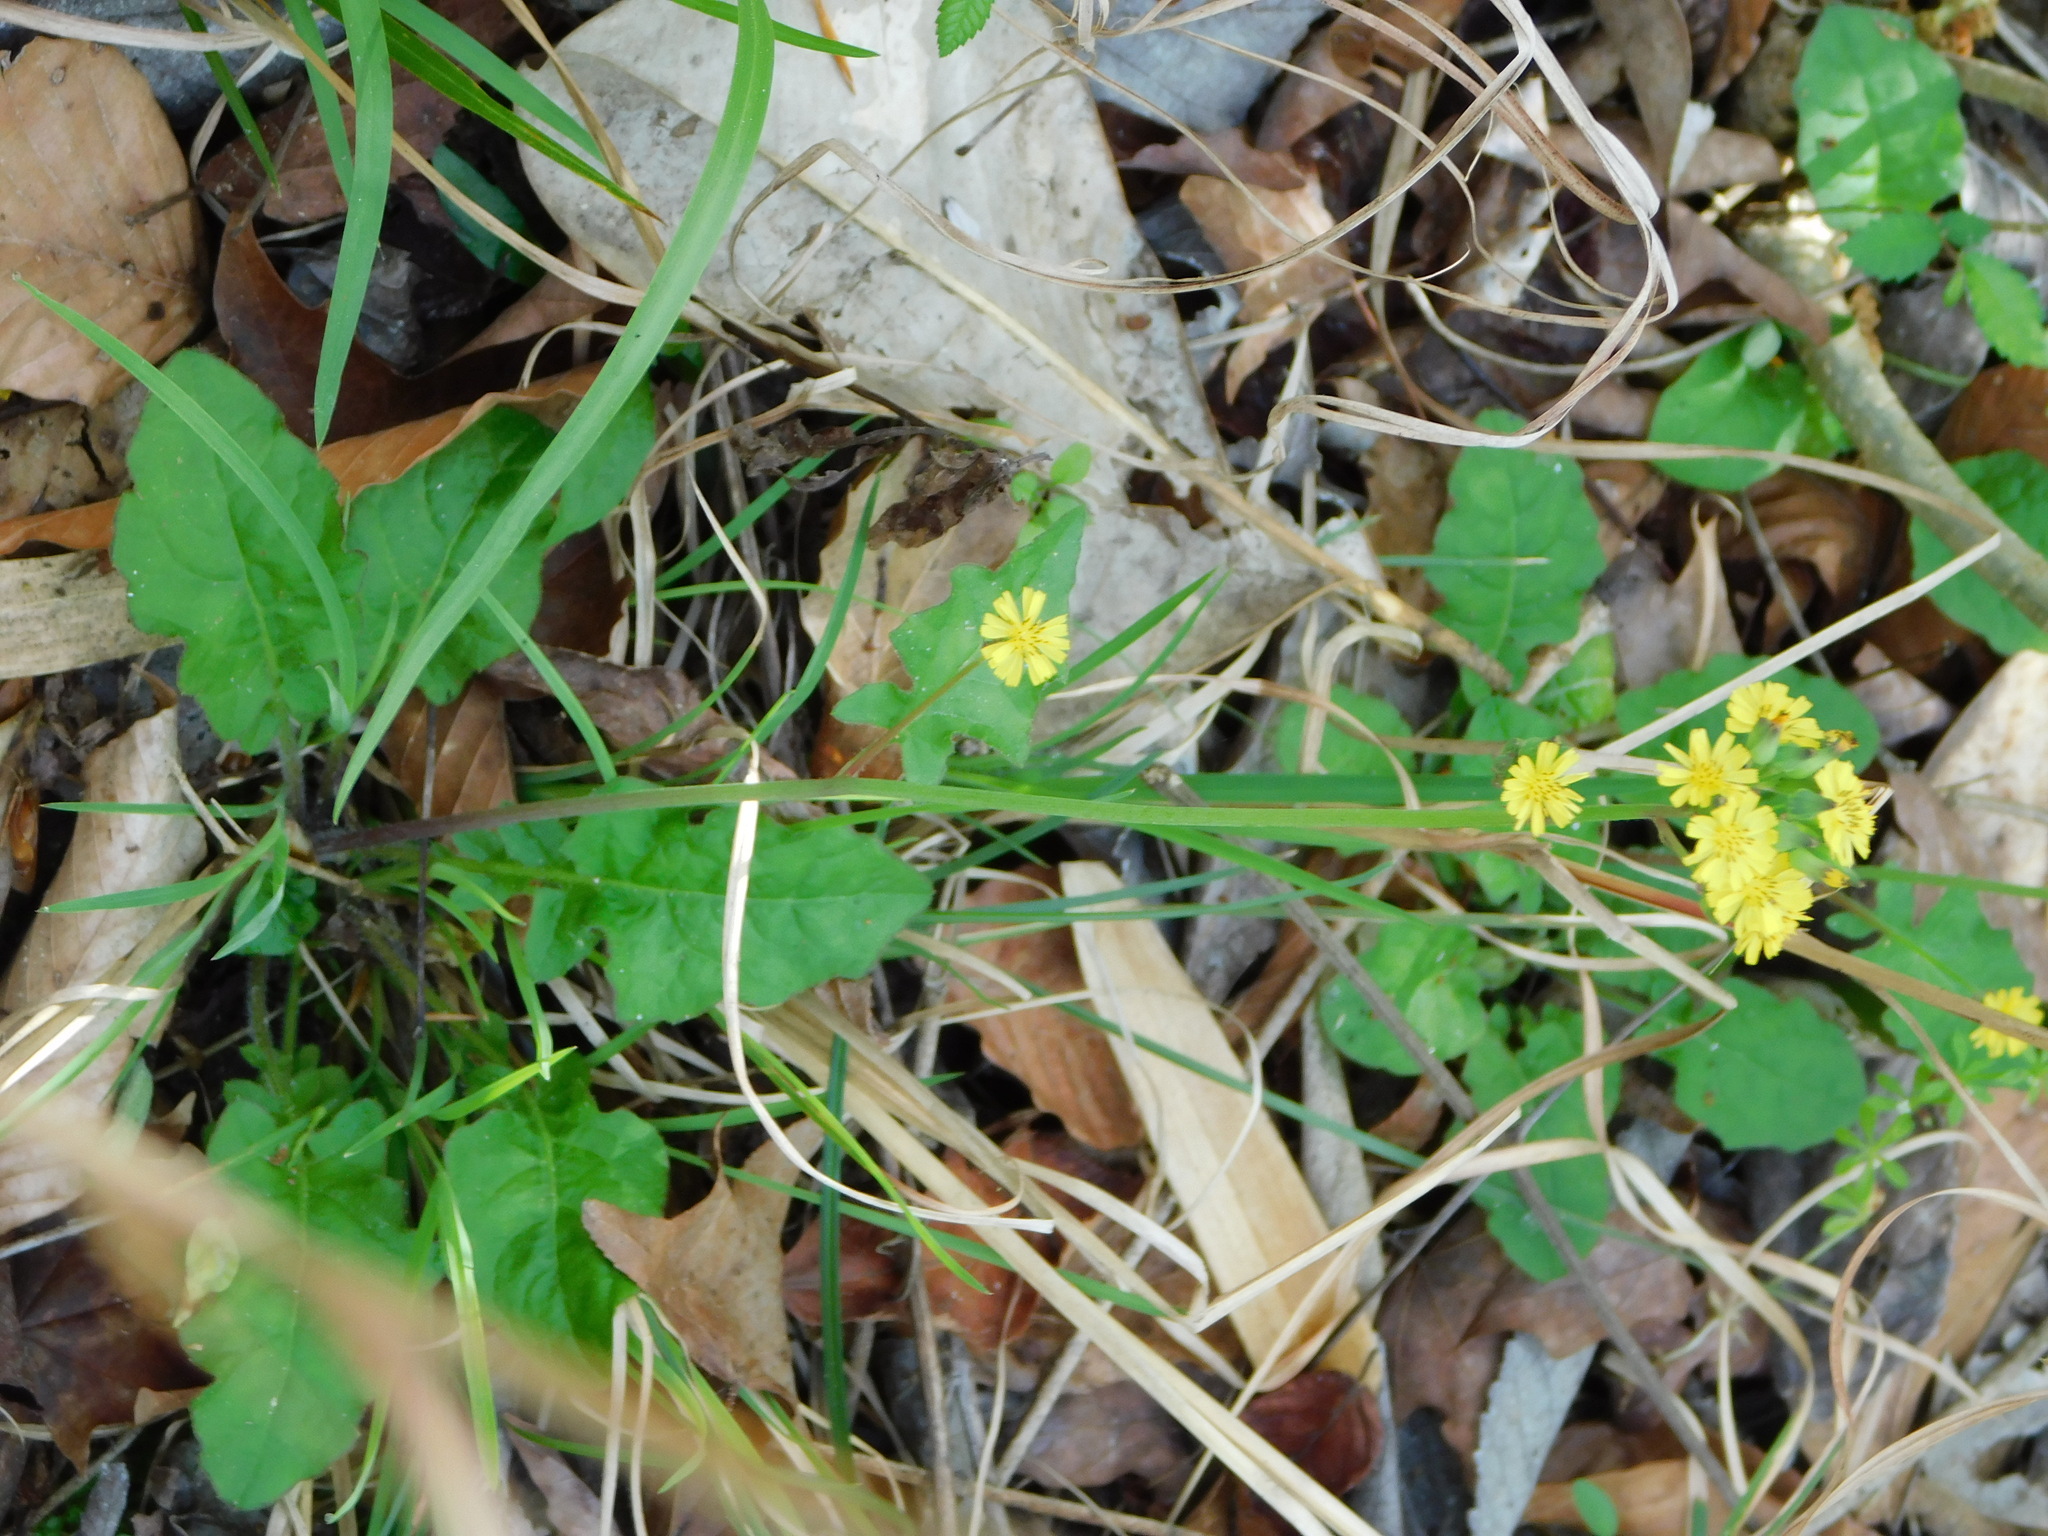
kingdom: Plantae
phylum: Tracheophyta
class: Magnoliopsida
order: Asterales
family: Asteraceae
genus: Youngia
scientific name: Youngia japonica
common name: Oriental false hawksbeard
